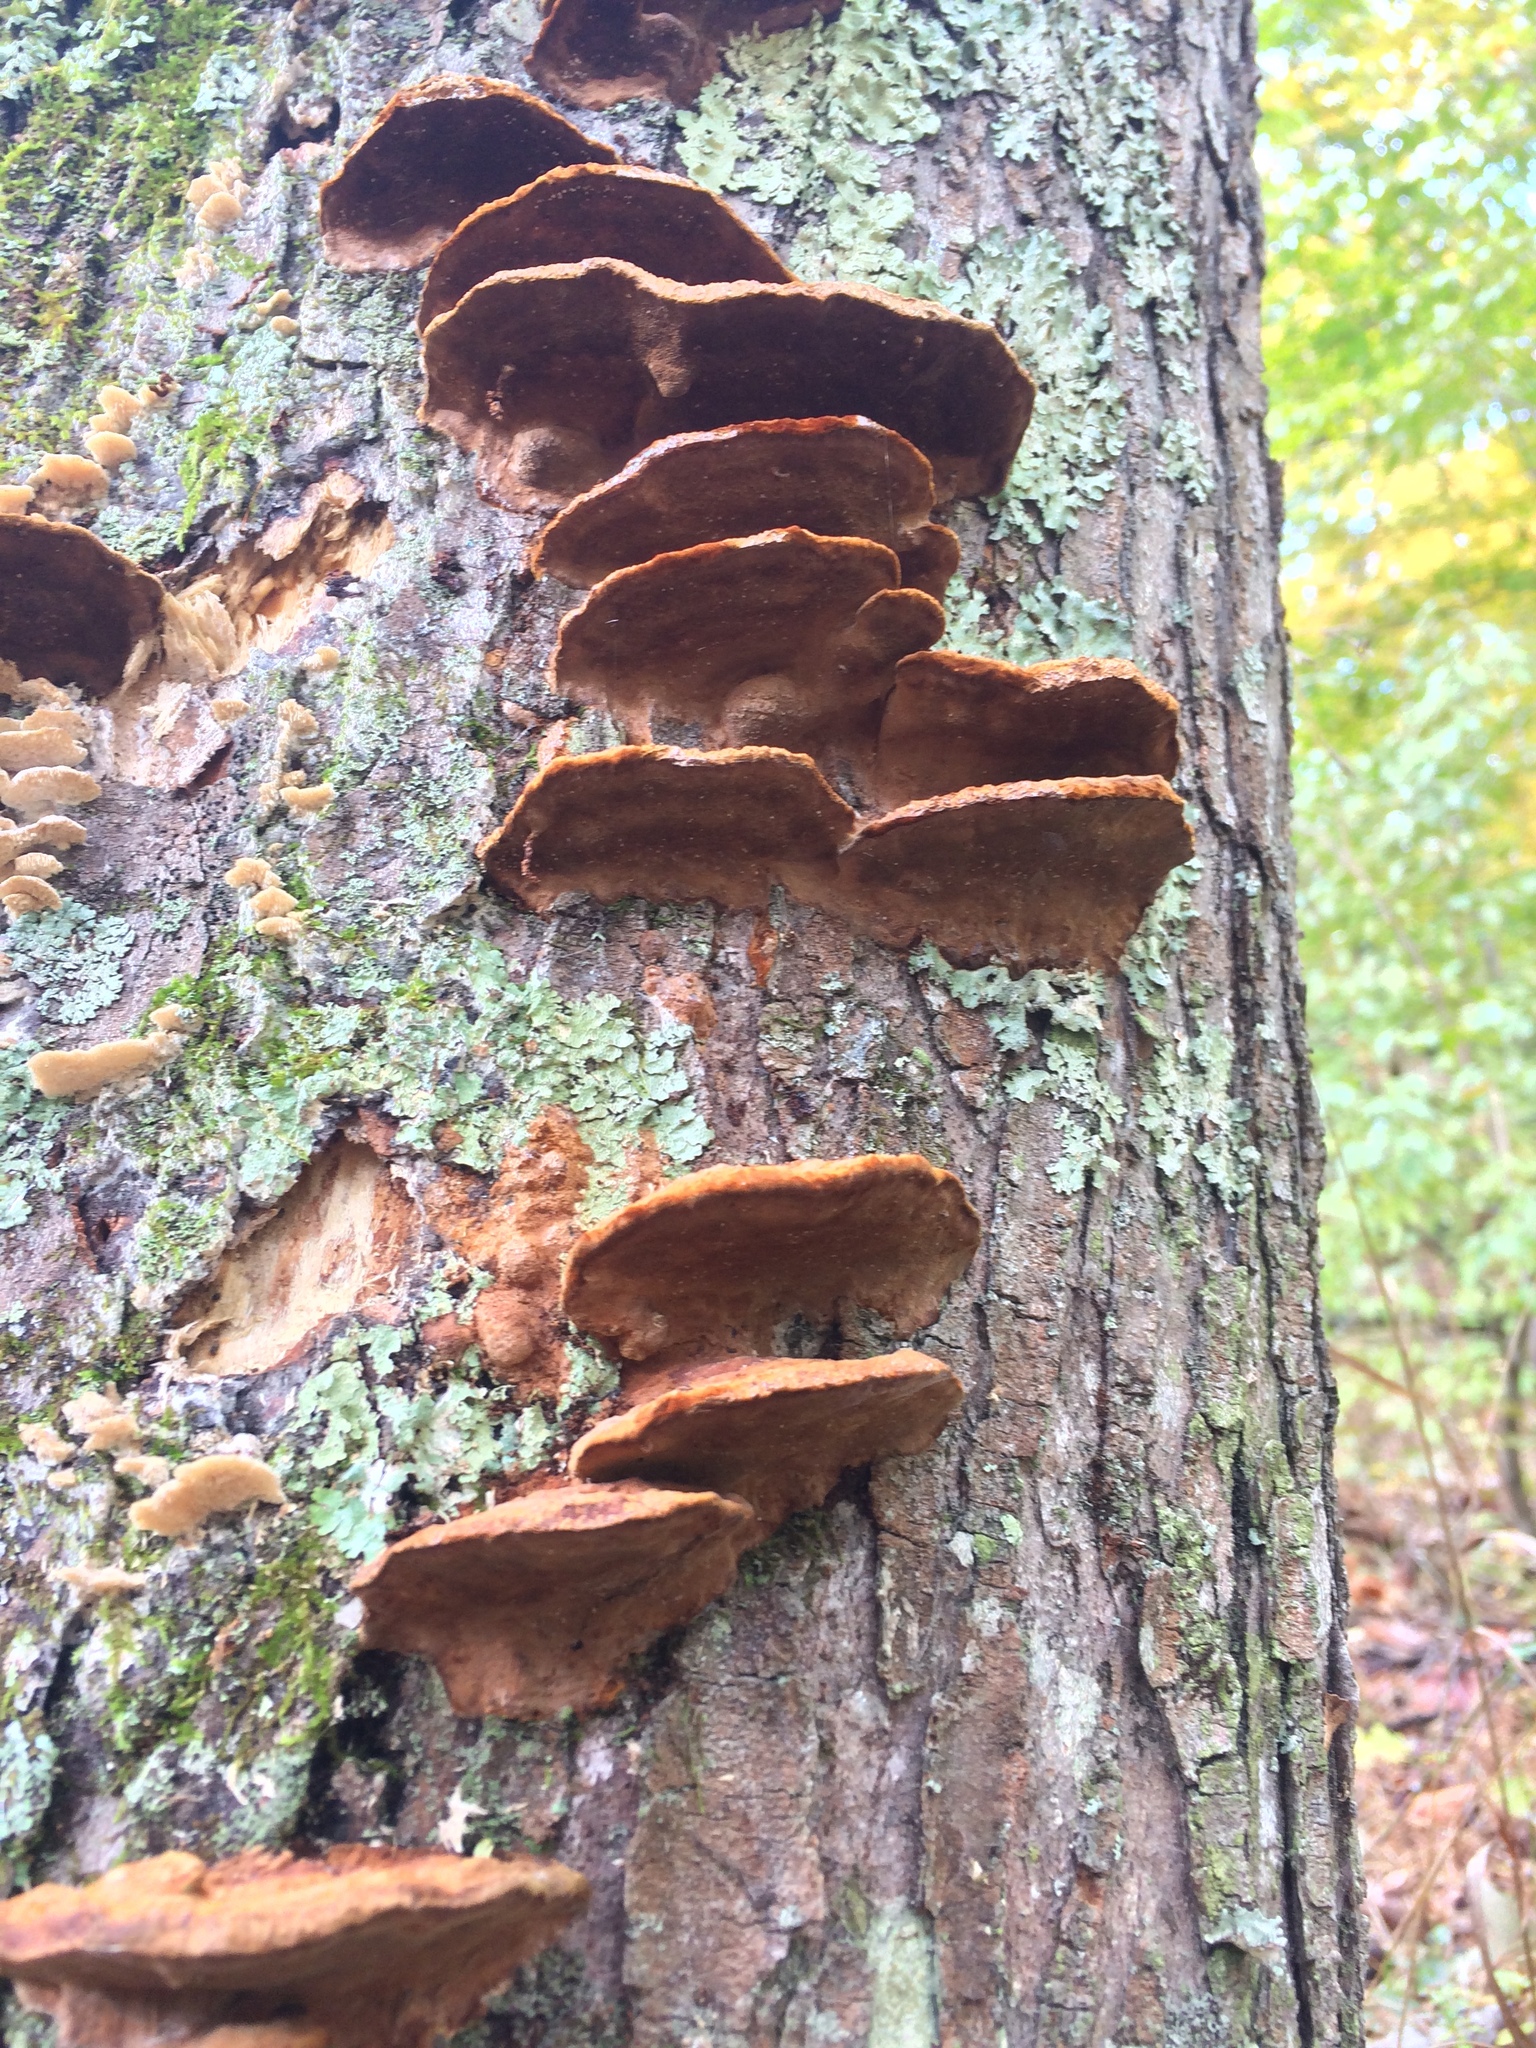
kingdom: Fungi
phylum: Basidiomycota
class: Agaricomycetes
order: Hymenochaetales
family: Hymenochaetaceae
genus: Phellinus
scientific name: Phellinus gilvus
